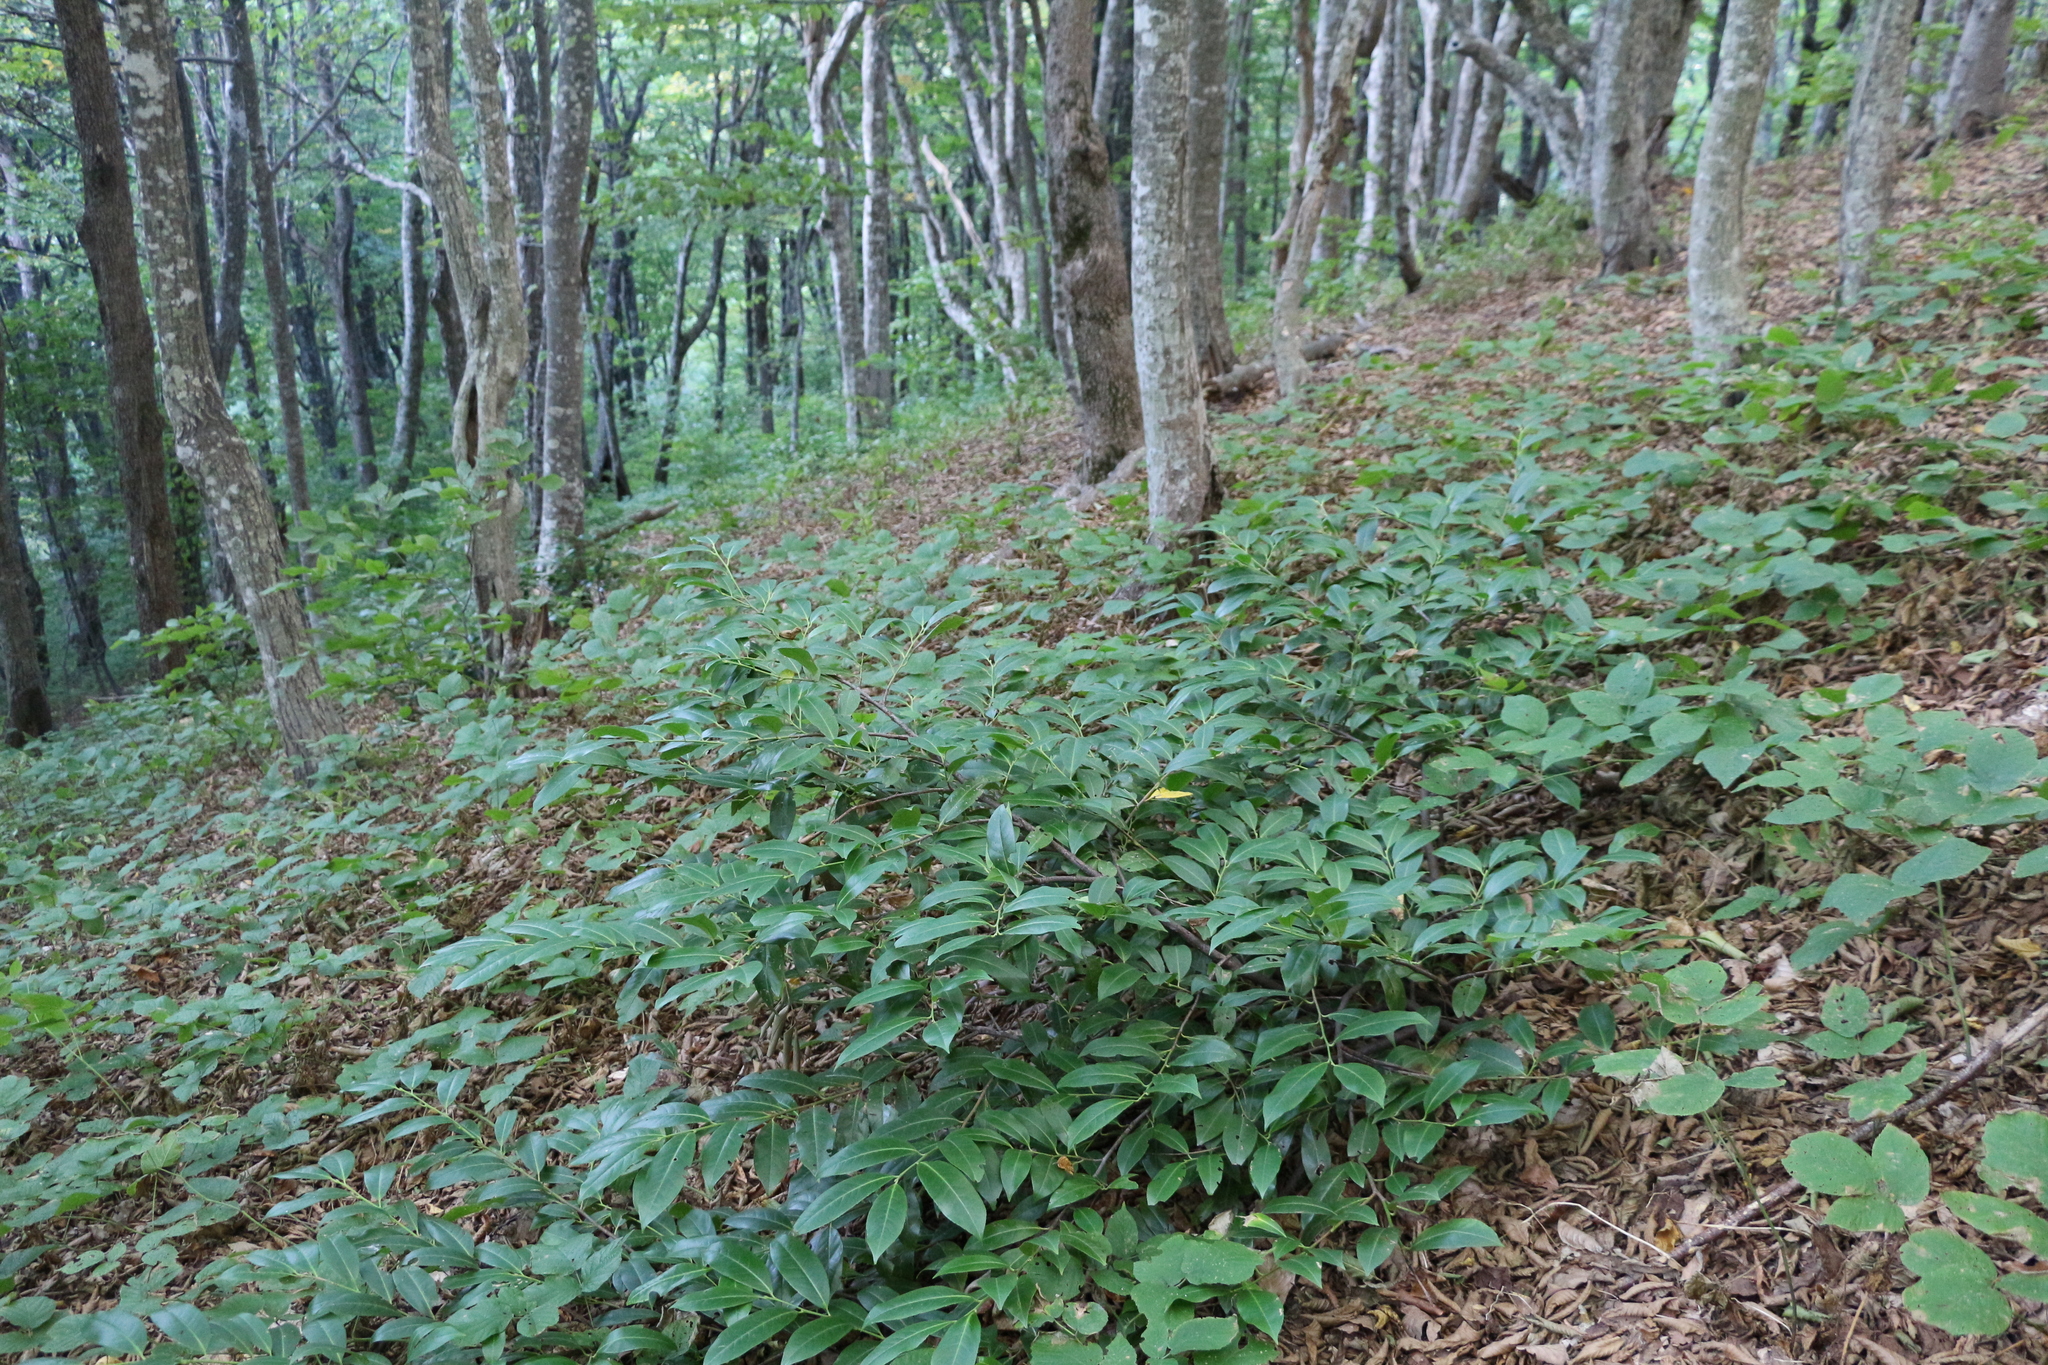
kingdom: Plantae
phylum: Tracheophyta
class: Magnoliopsida
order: Rosales
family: Rosaceae
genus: Prunus
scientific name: Prunus laurocerasus
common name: Cherry laurel
